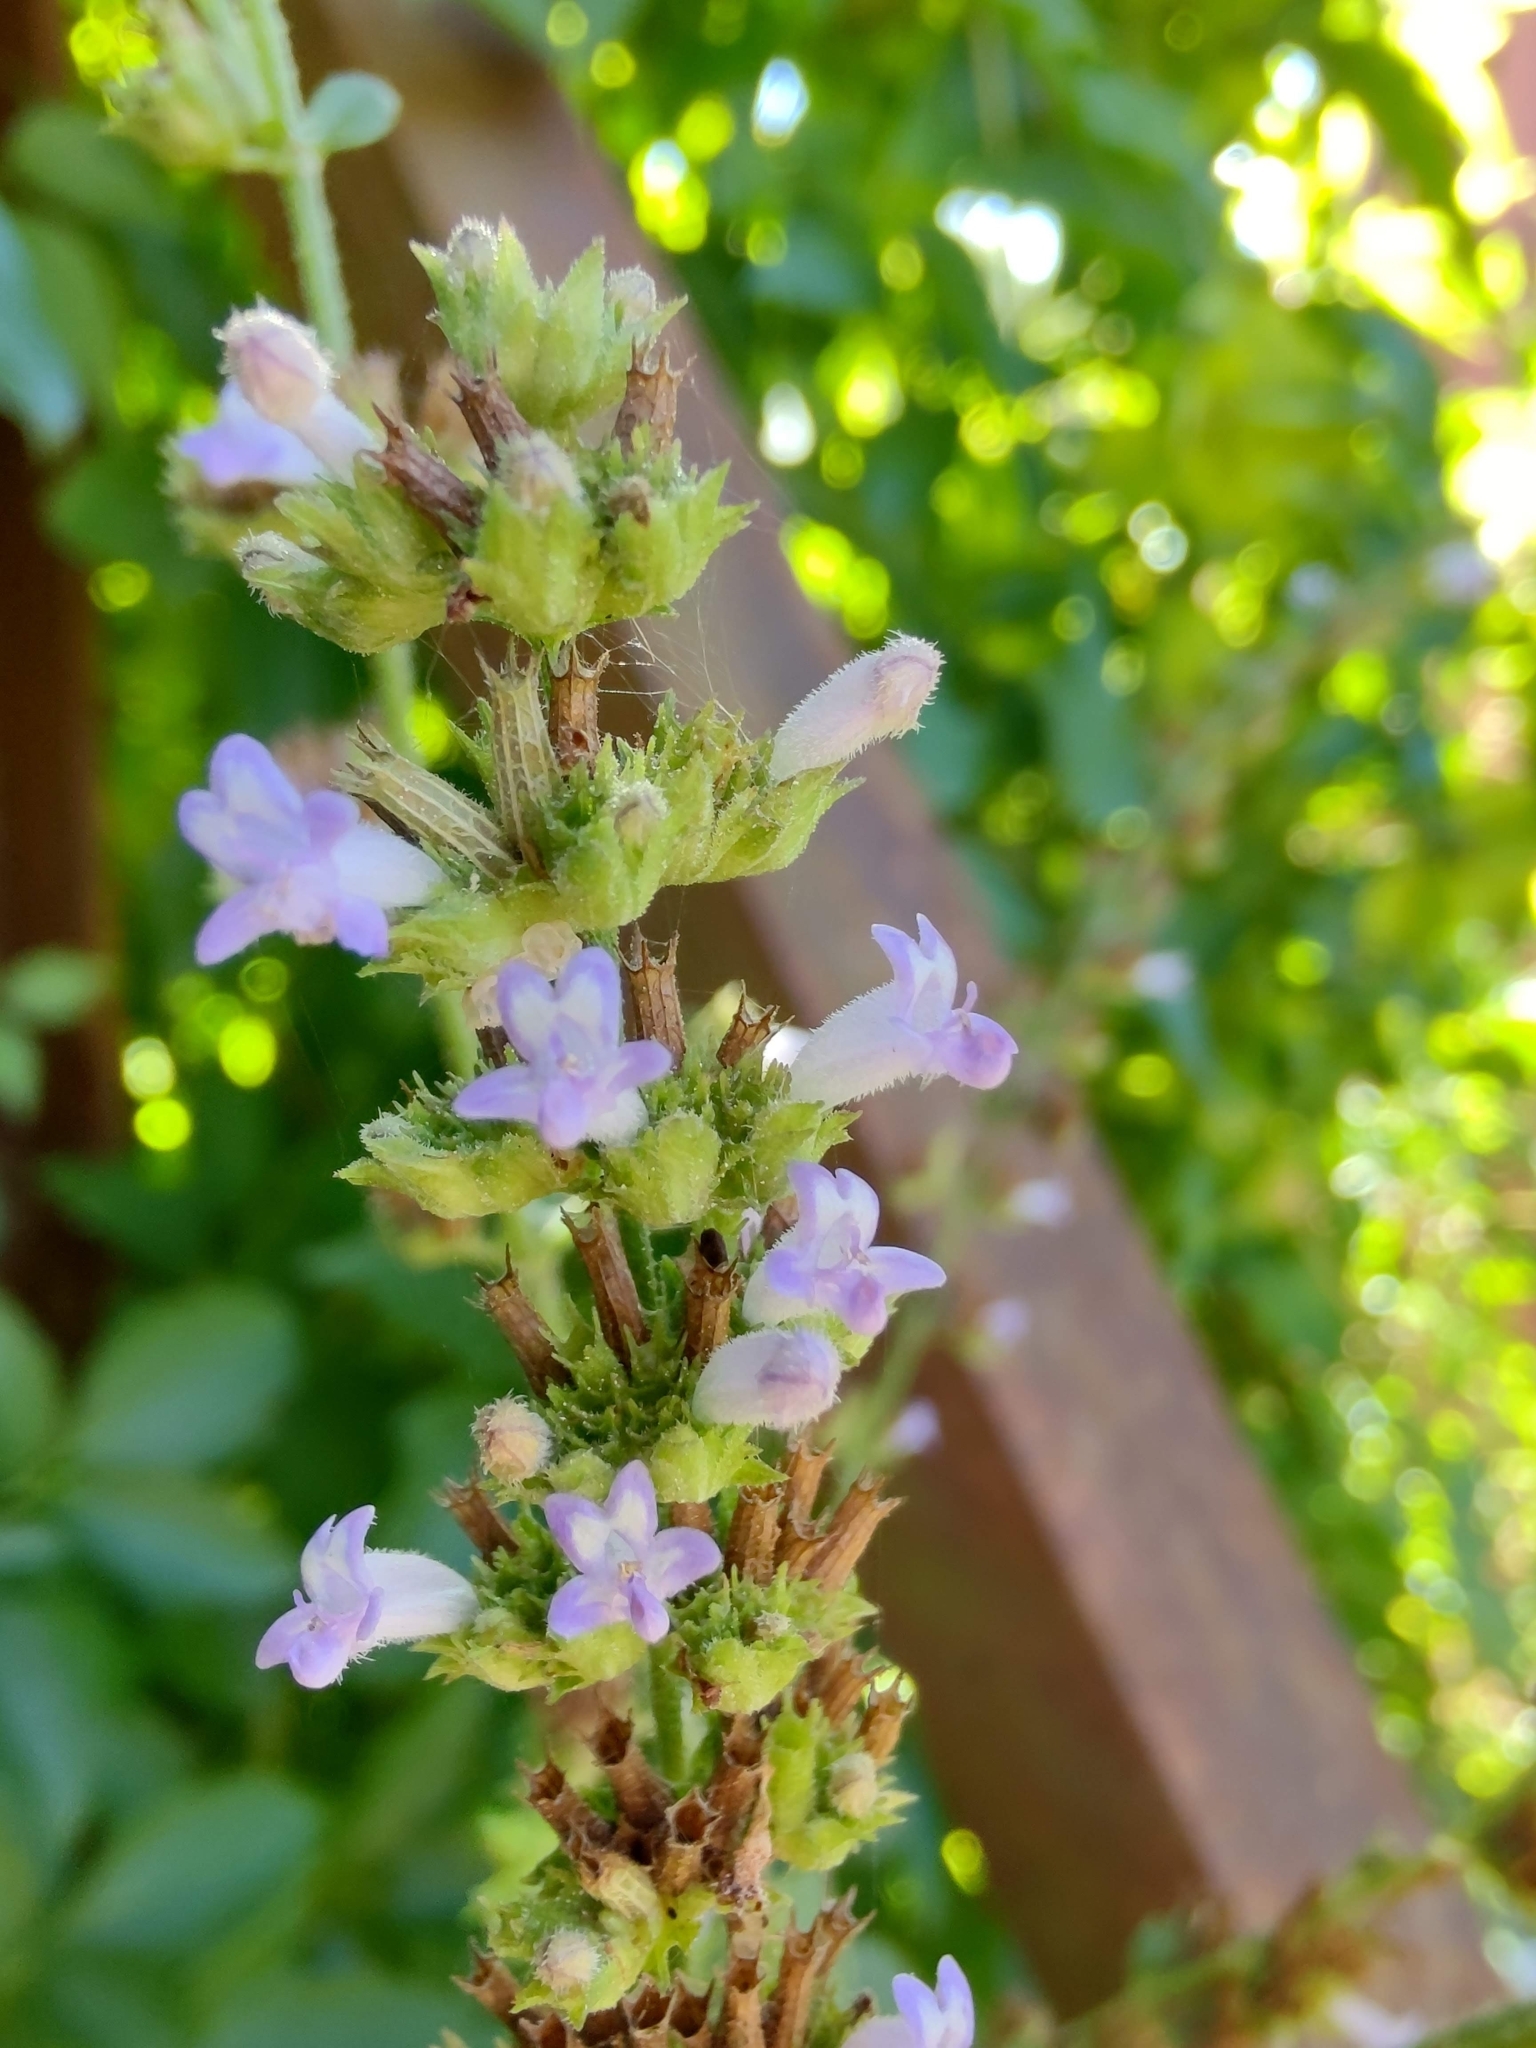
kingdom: Plantae
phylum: Tracheophyta
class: Magnoliopsida
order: Lamiales
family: Lamiaceae
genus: Cantinoa
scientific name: Cantinoa mutabilis
